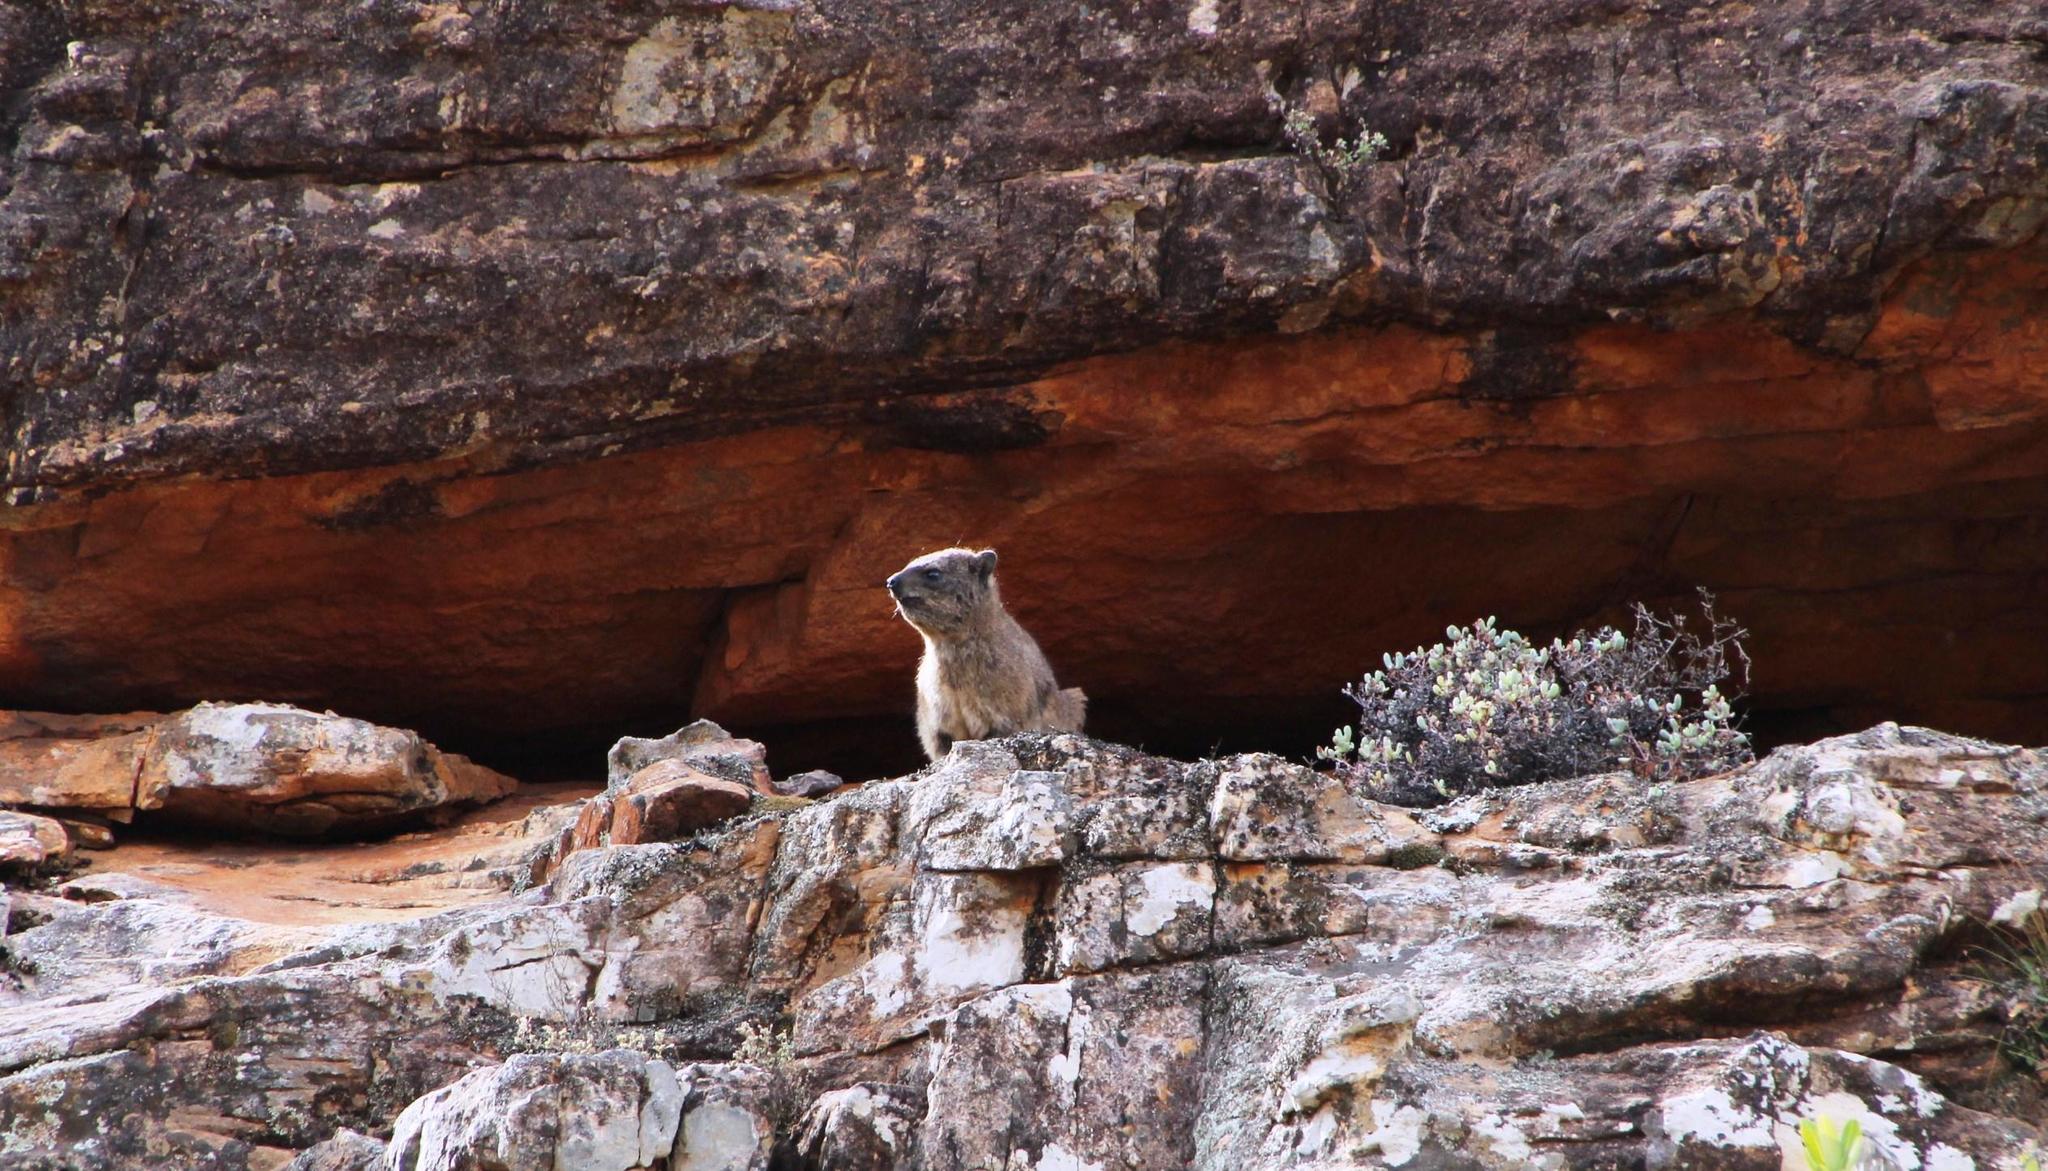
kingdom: Animalia
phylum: Chordata
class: Mammalia
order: Hyracoidea
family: Procaviidae
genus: Procavia
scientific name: Procavia capensis
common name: Rock hyrax
